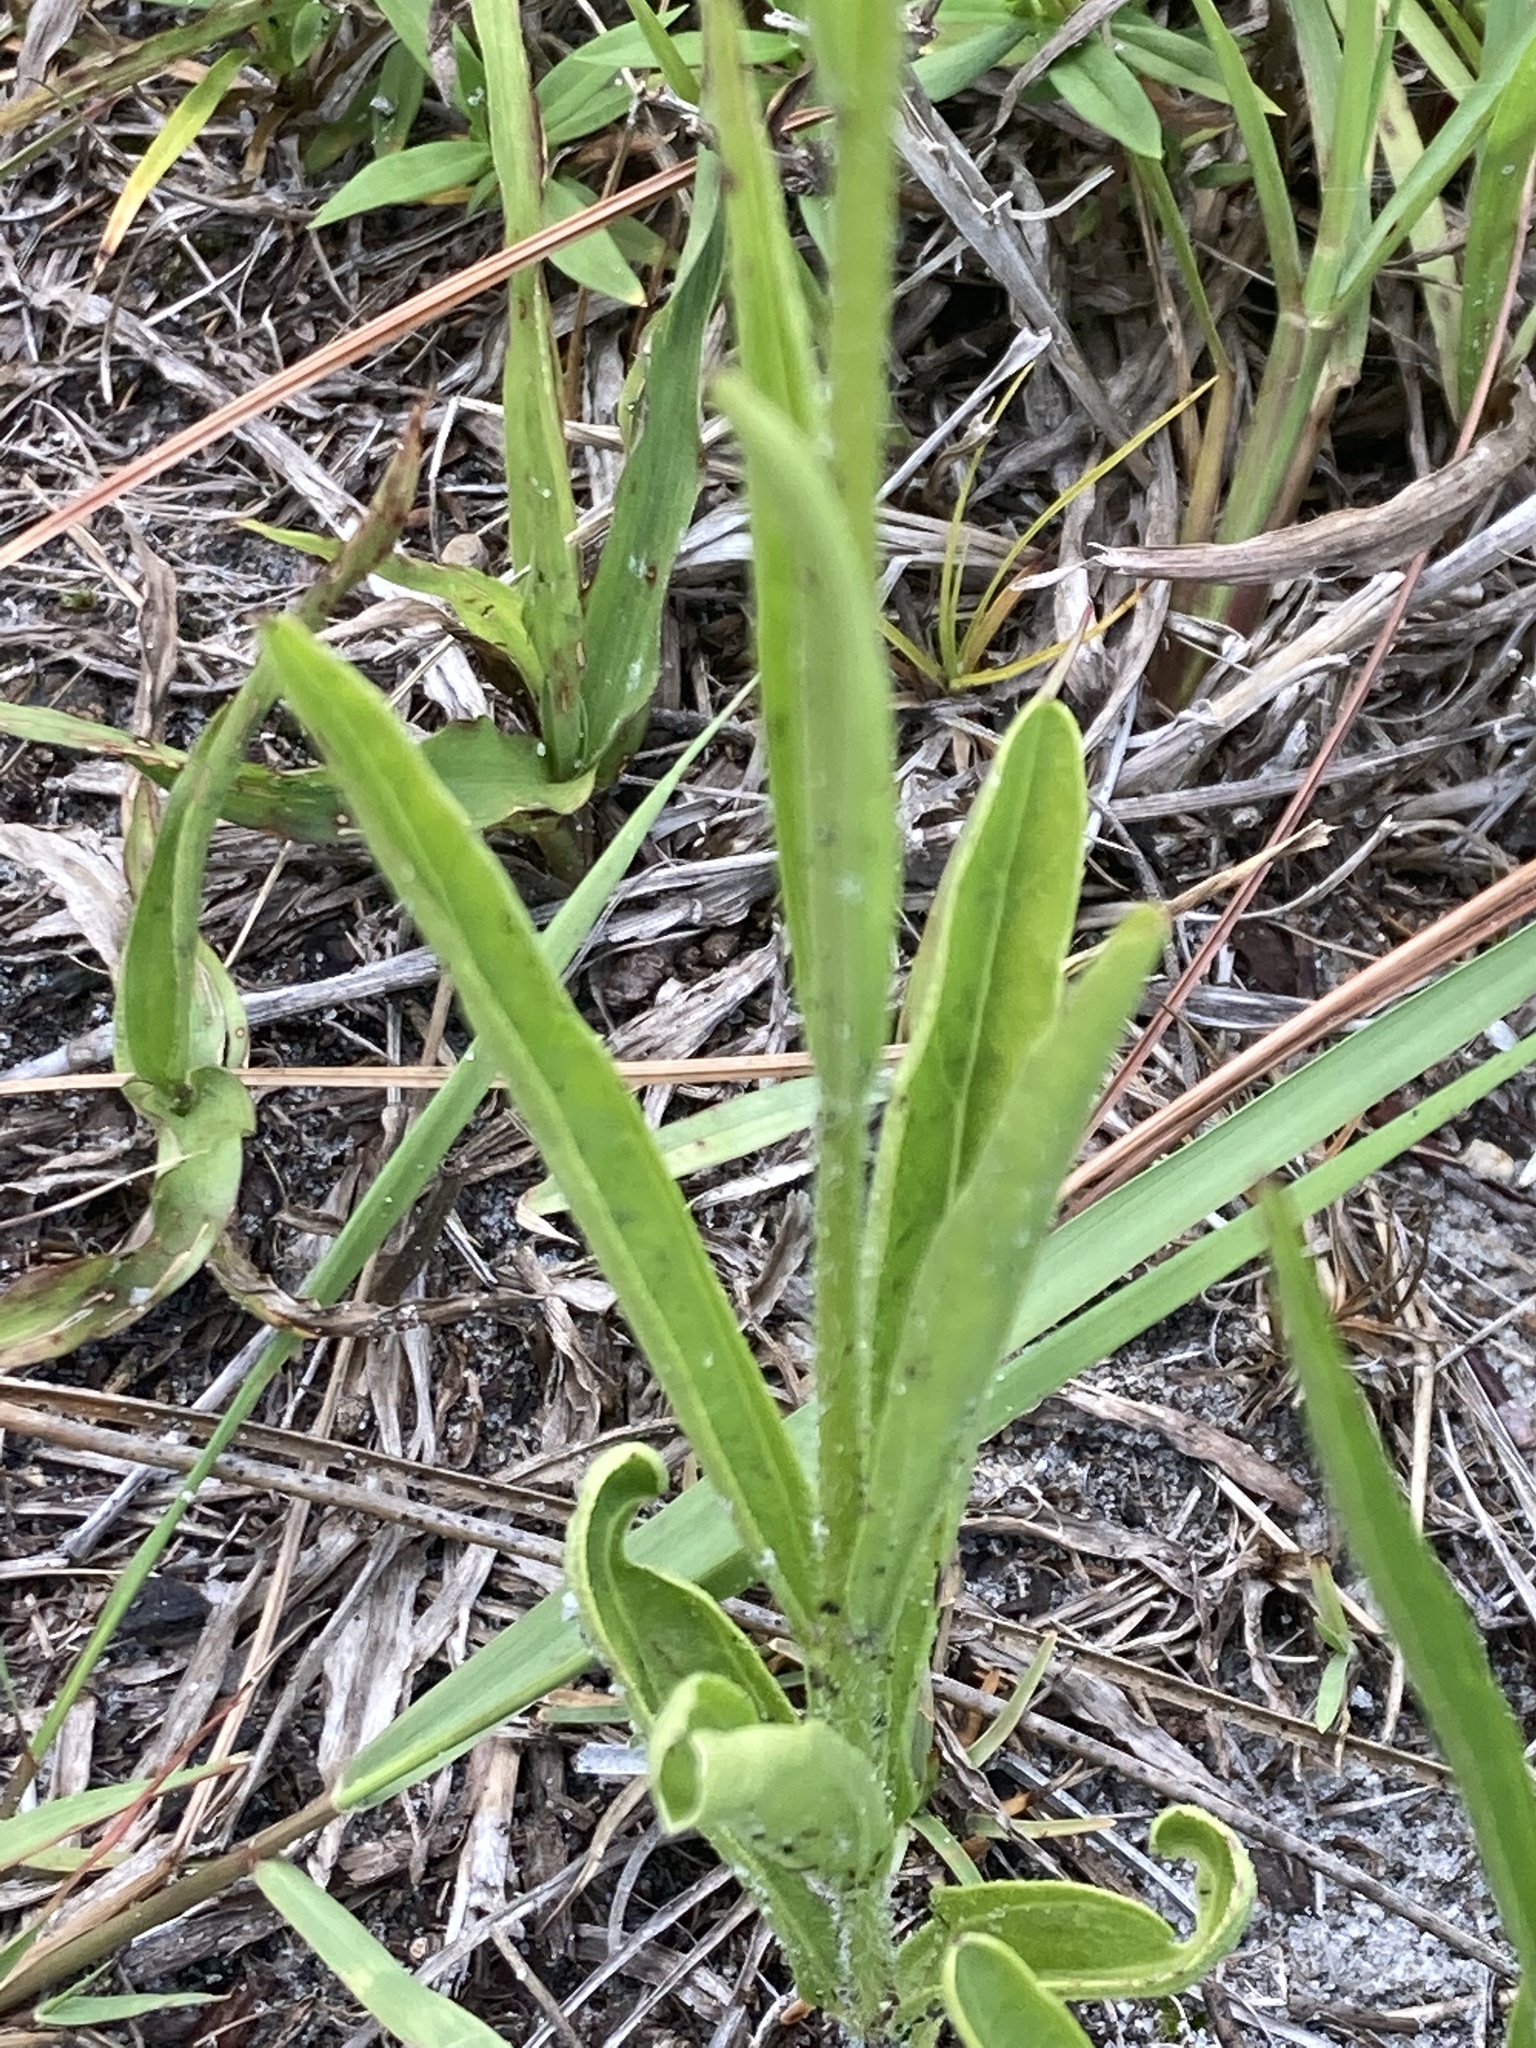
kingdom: Plantae
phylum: Tracheophyta
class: Magnoliopsida
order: Lamiales
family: Orobanchaceae
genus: Buchnera
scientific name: Buchnera floridana
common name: Florida bluehearts
